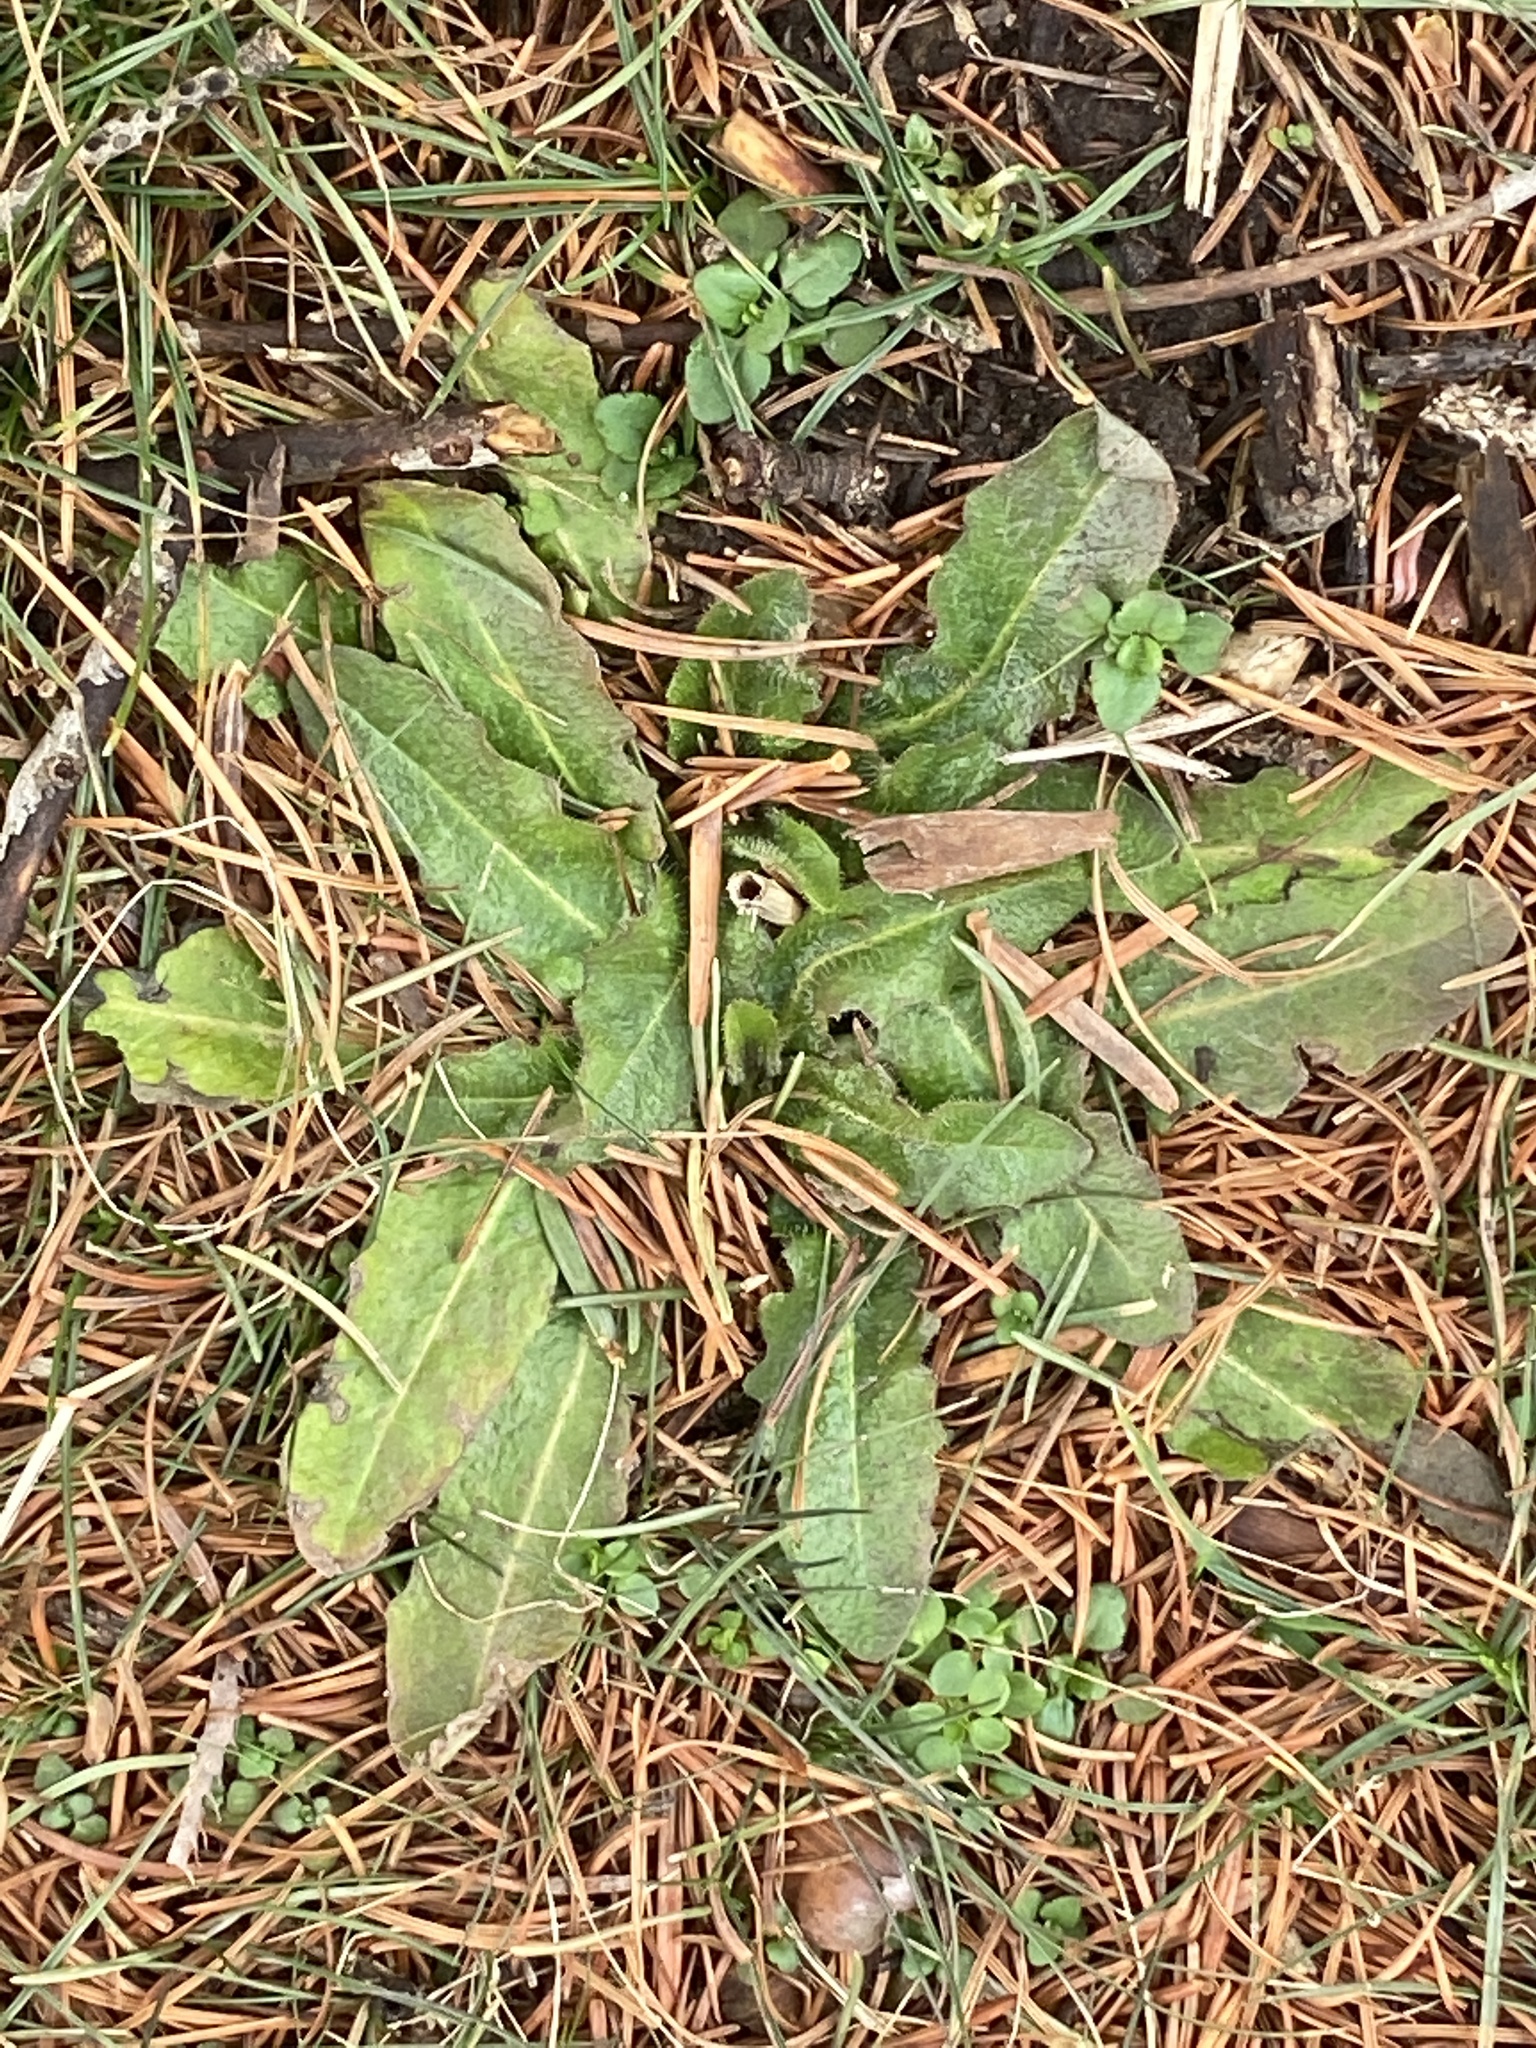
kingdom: Plantae
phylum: Tracheophyta
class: Magnoliopsida
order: Asterales
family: Asteraceae
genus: Hypochaeris
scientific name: Hypochaeris radicata
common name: Flatweed
